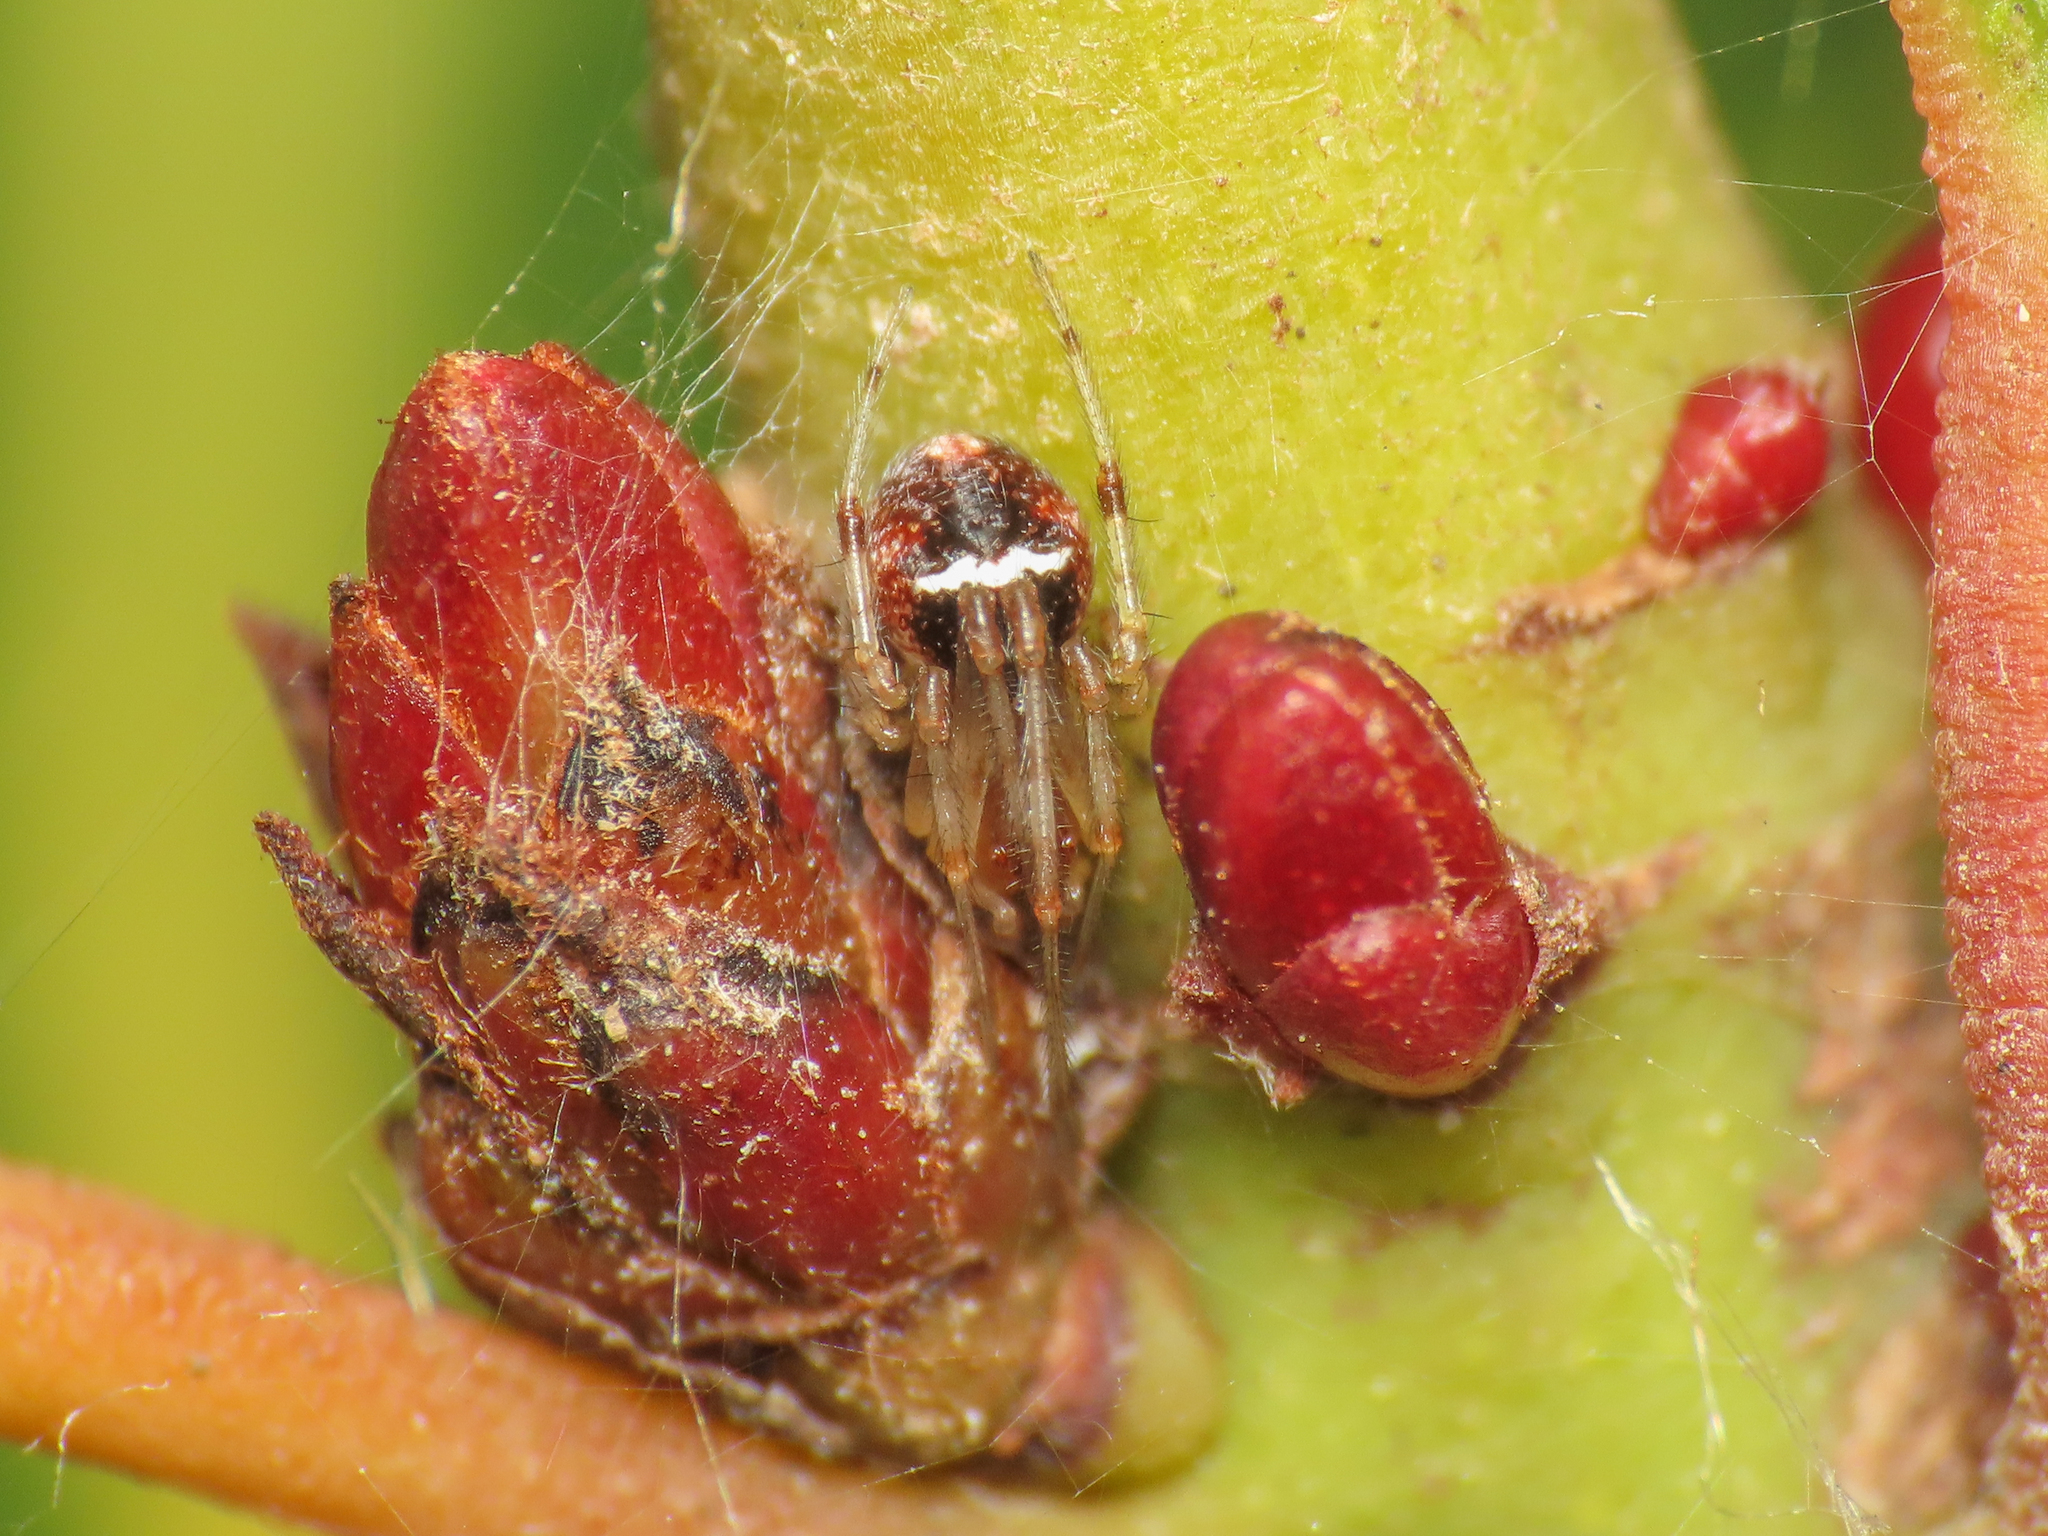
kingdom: Animalia
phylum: Arthropoda
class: Arachnida
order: Araneae
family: Theridiidae
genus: Simitidion
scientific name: Simitidion simile
